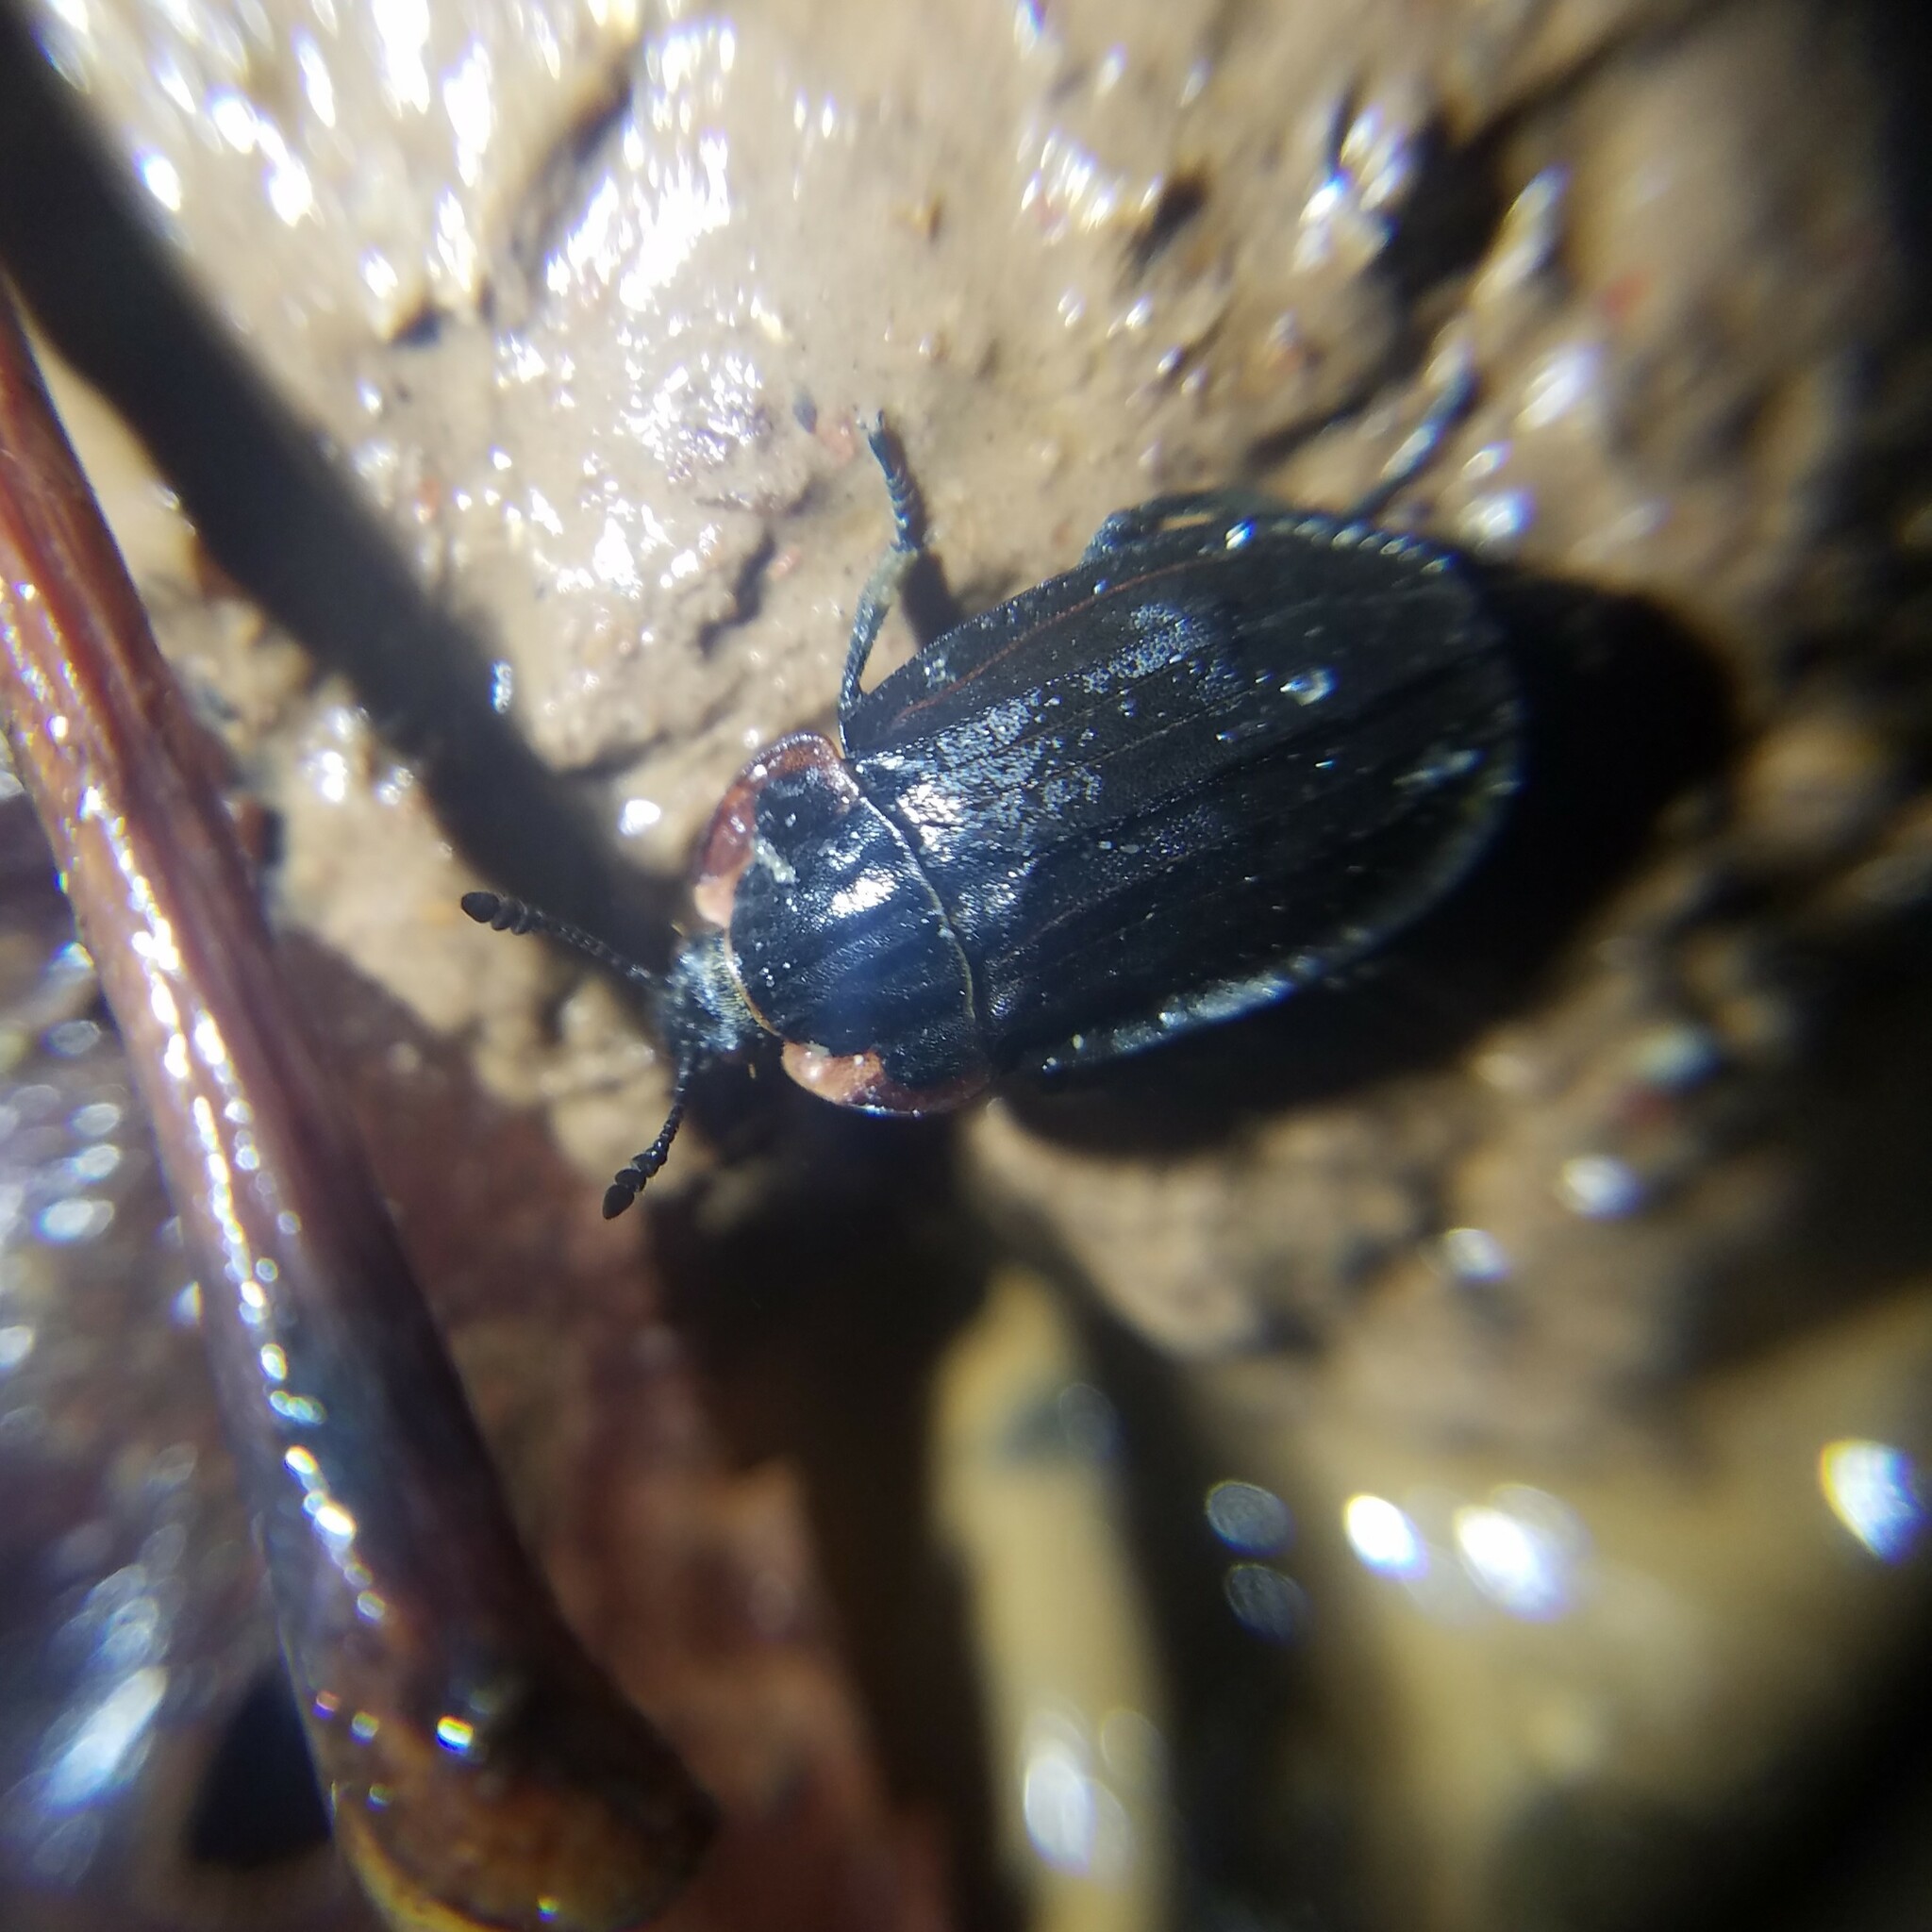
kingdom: Animalia
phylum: Arthropoda
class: Insecta
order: Coleoptera
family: Staphylinidae
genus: Oiceoptoma
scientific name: Oiceoptoma noveboracense
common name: Margined carrion beetle
